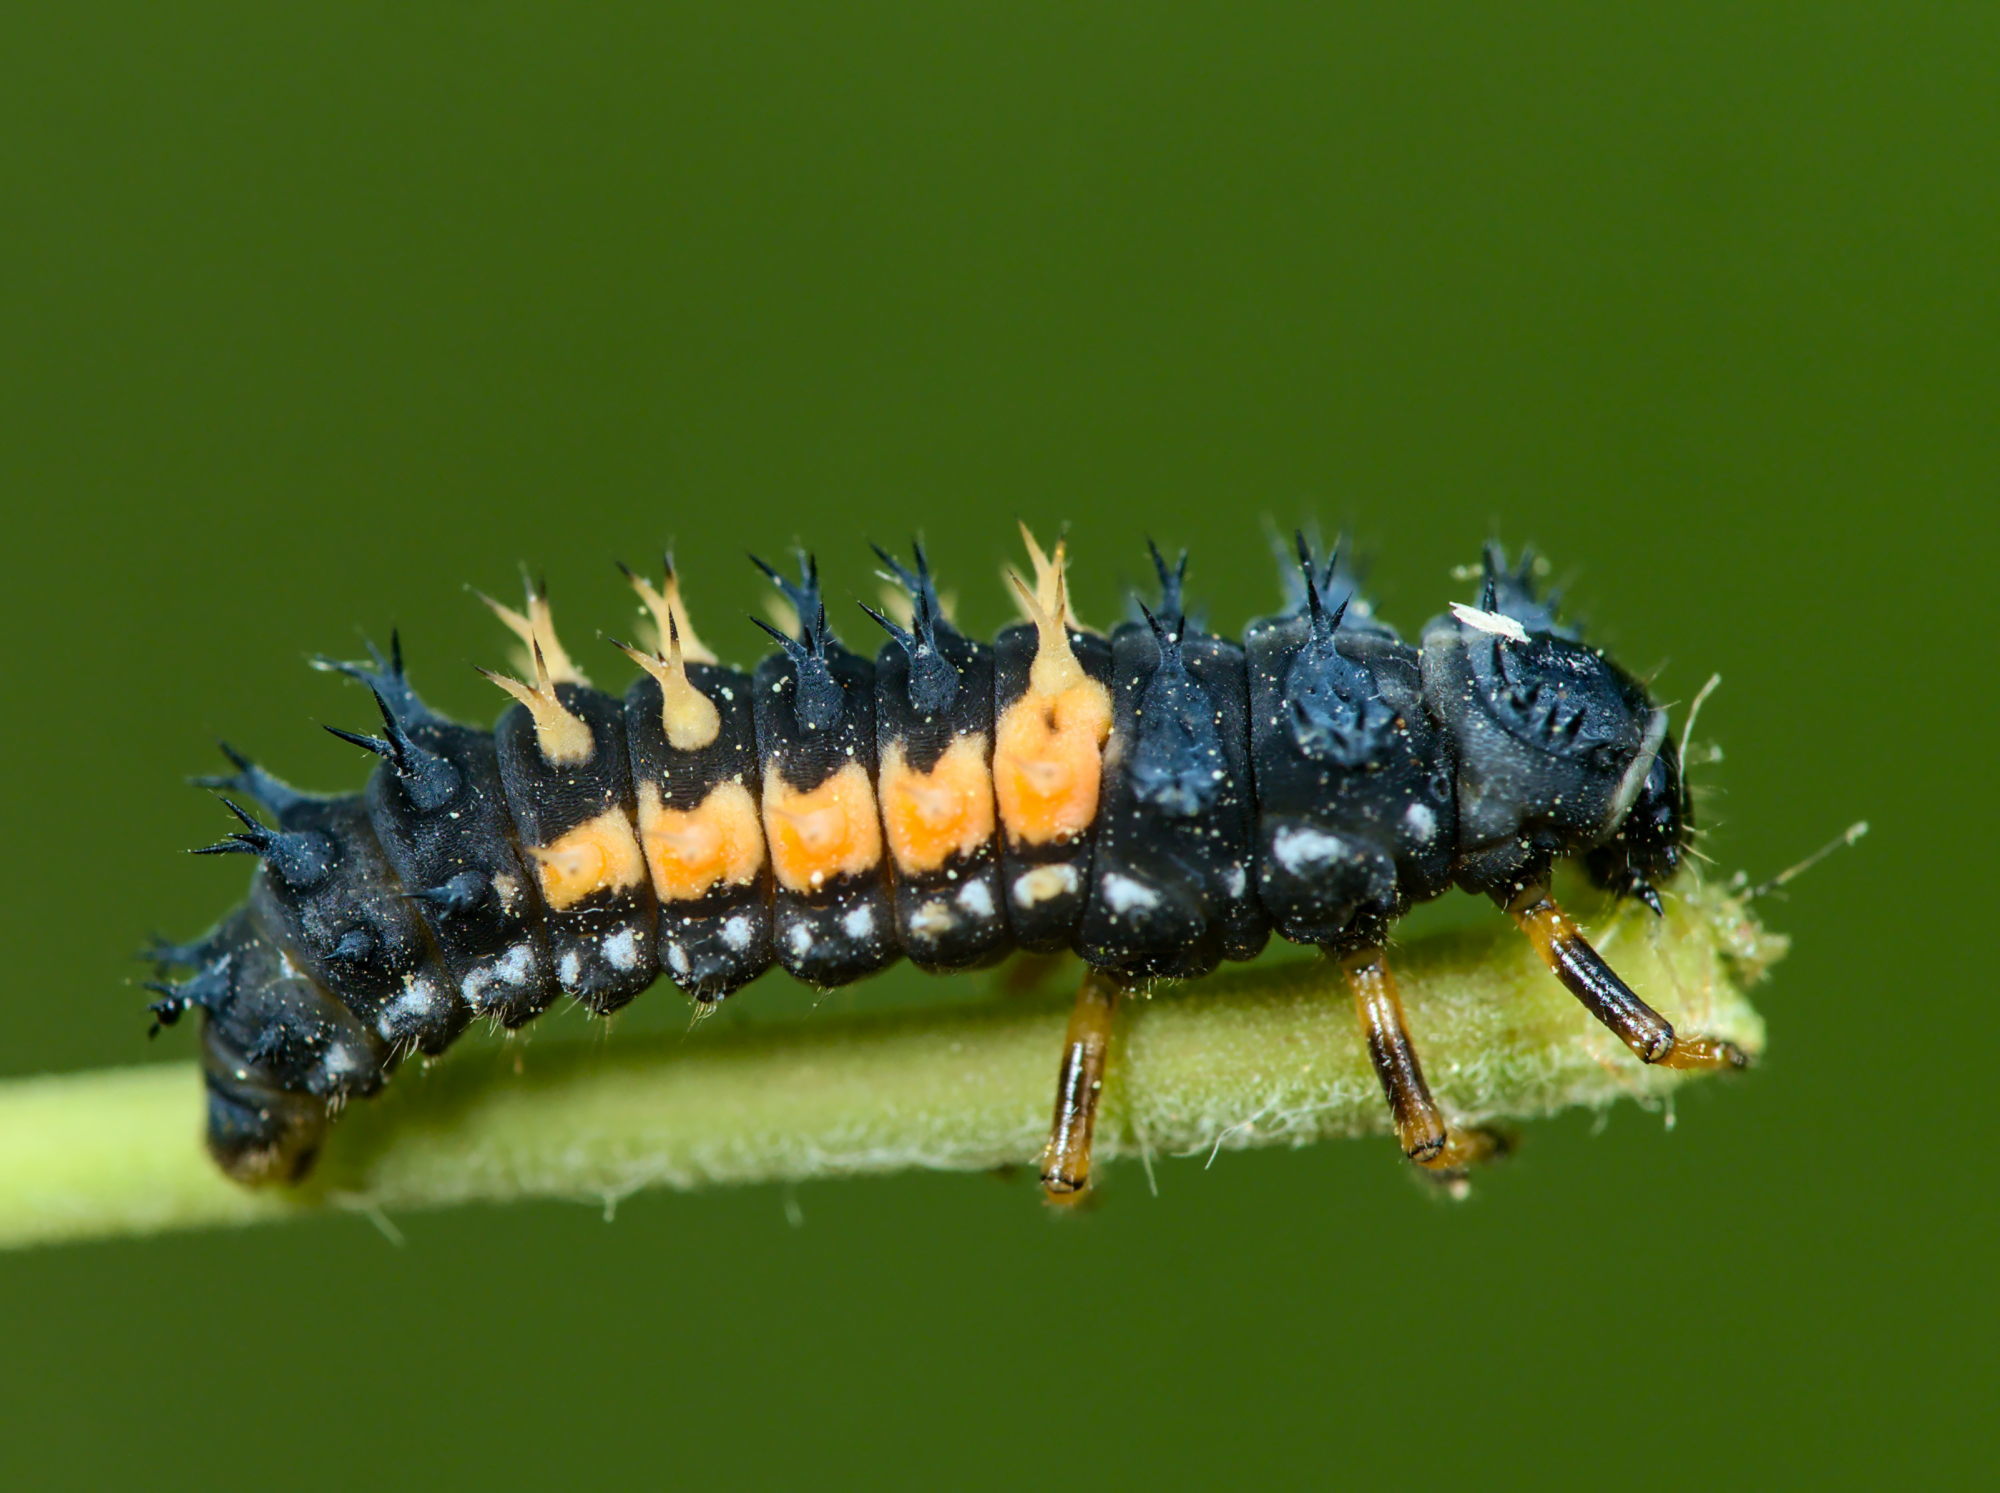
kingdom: Animalia
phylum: Arthropoda
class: Insecta
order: Coleoptera
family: Coccinellidae
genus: Harmonia
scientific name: Harmonia axyridis
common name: Harlequin ladybird
